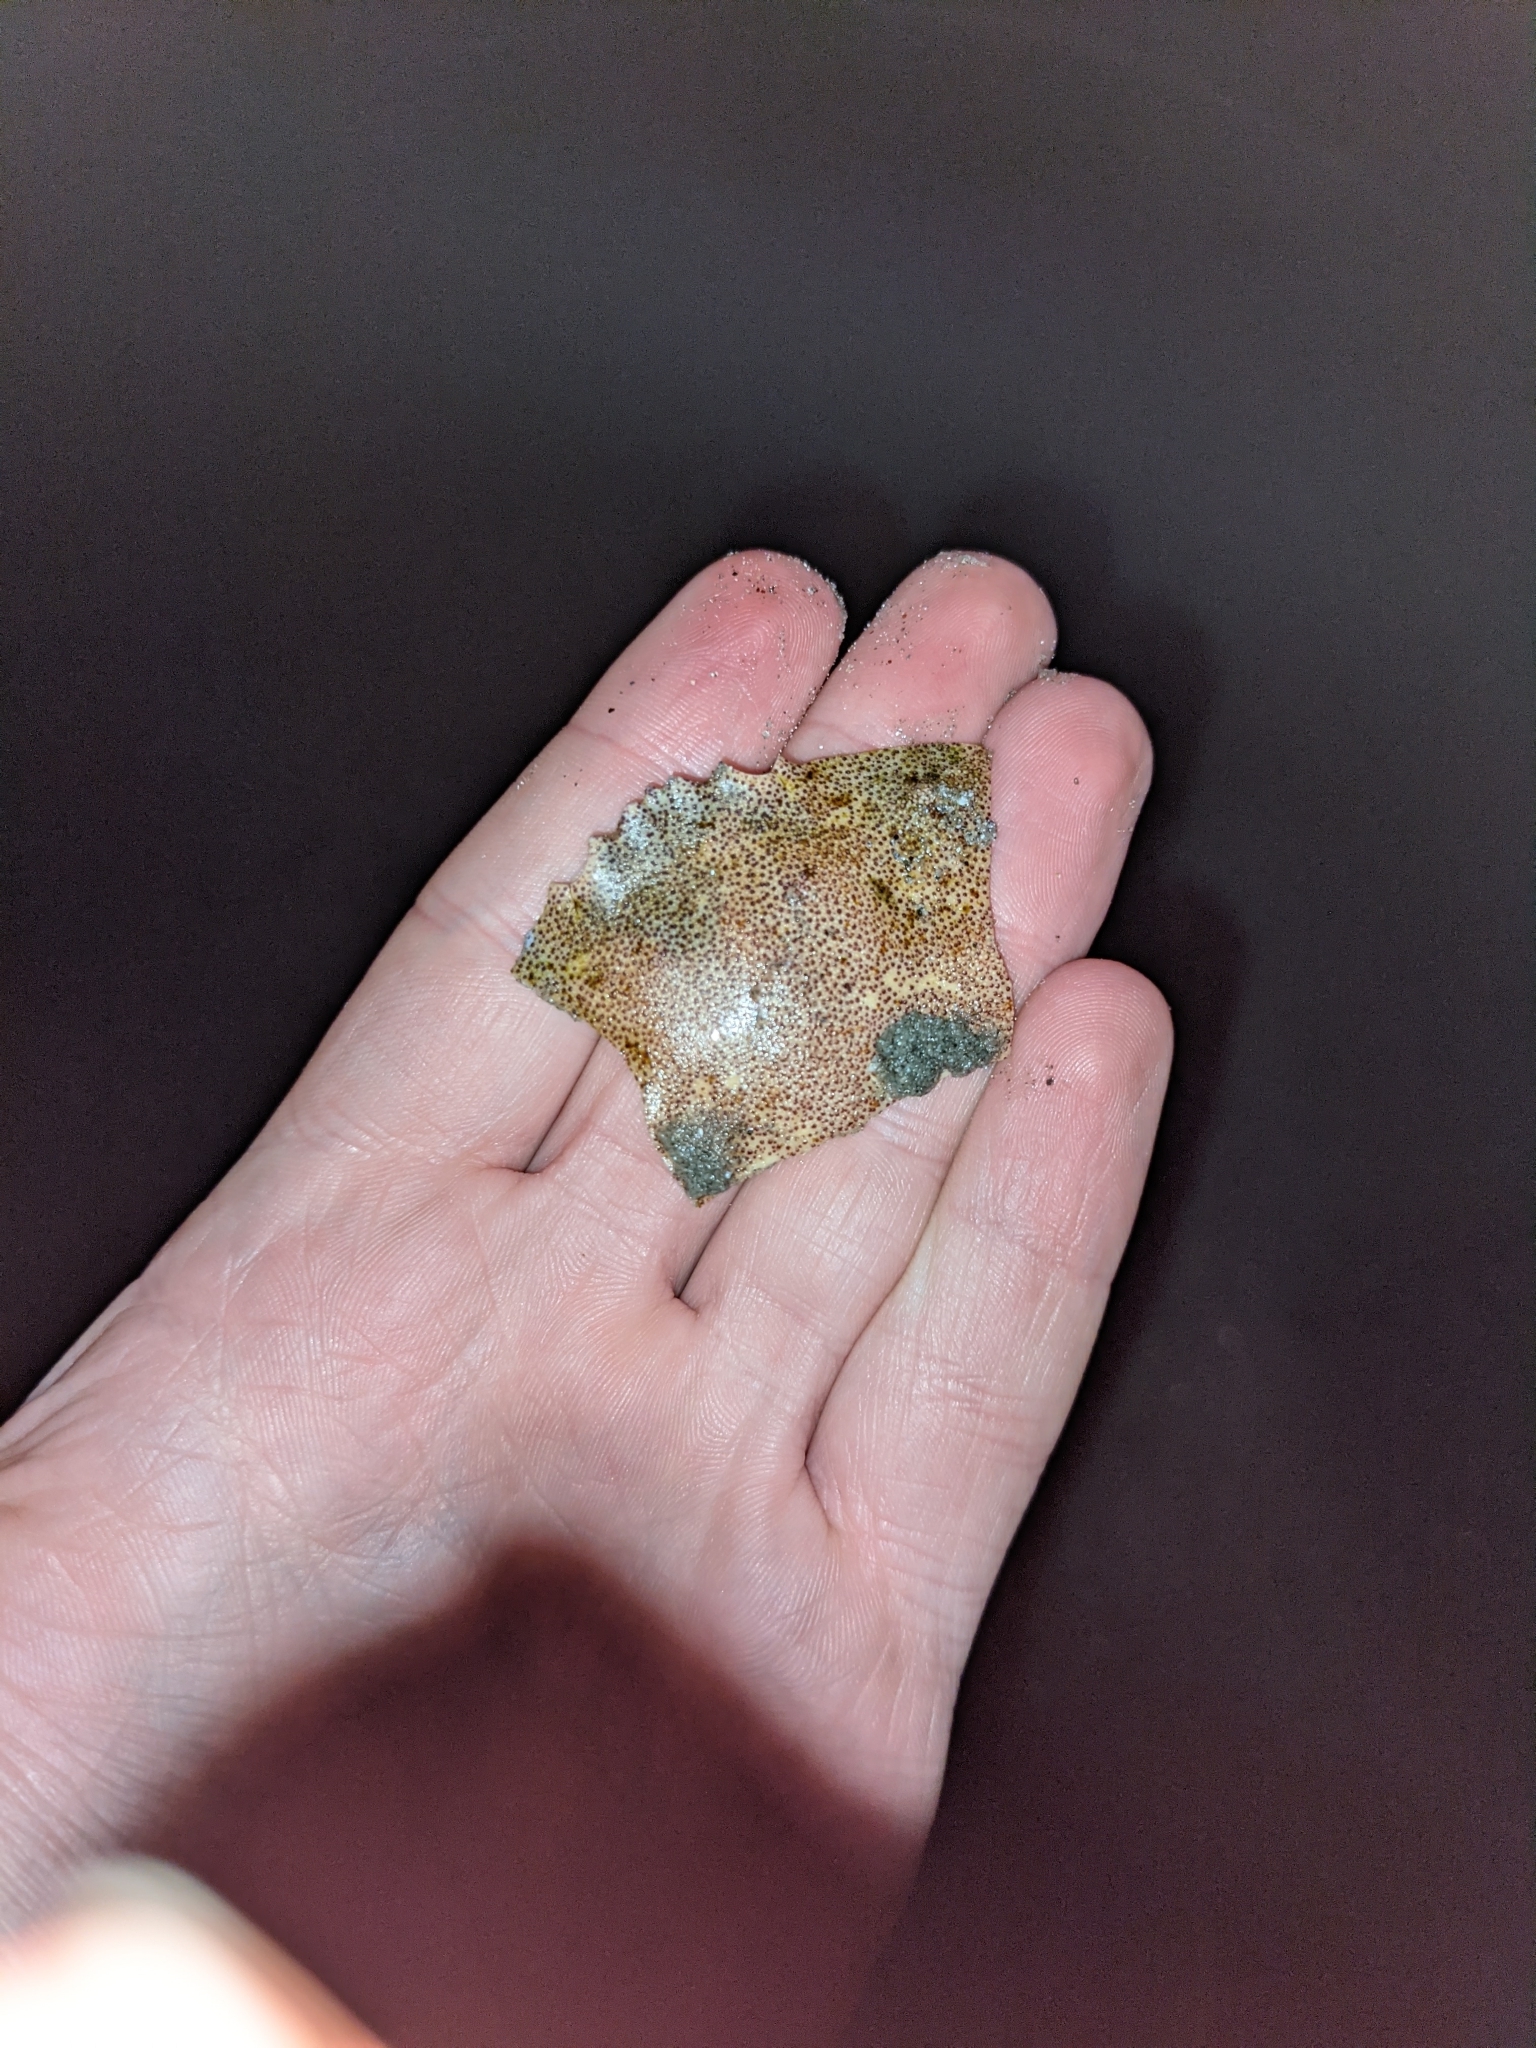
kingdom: Animalia
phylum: Arthropoda
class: Malacostraca
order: Decapoda
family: Cancridae
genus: Cancer
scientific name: Cancer
